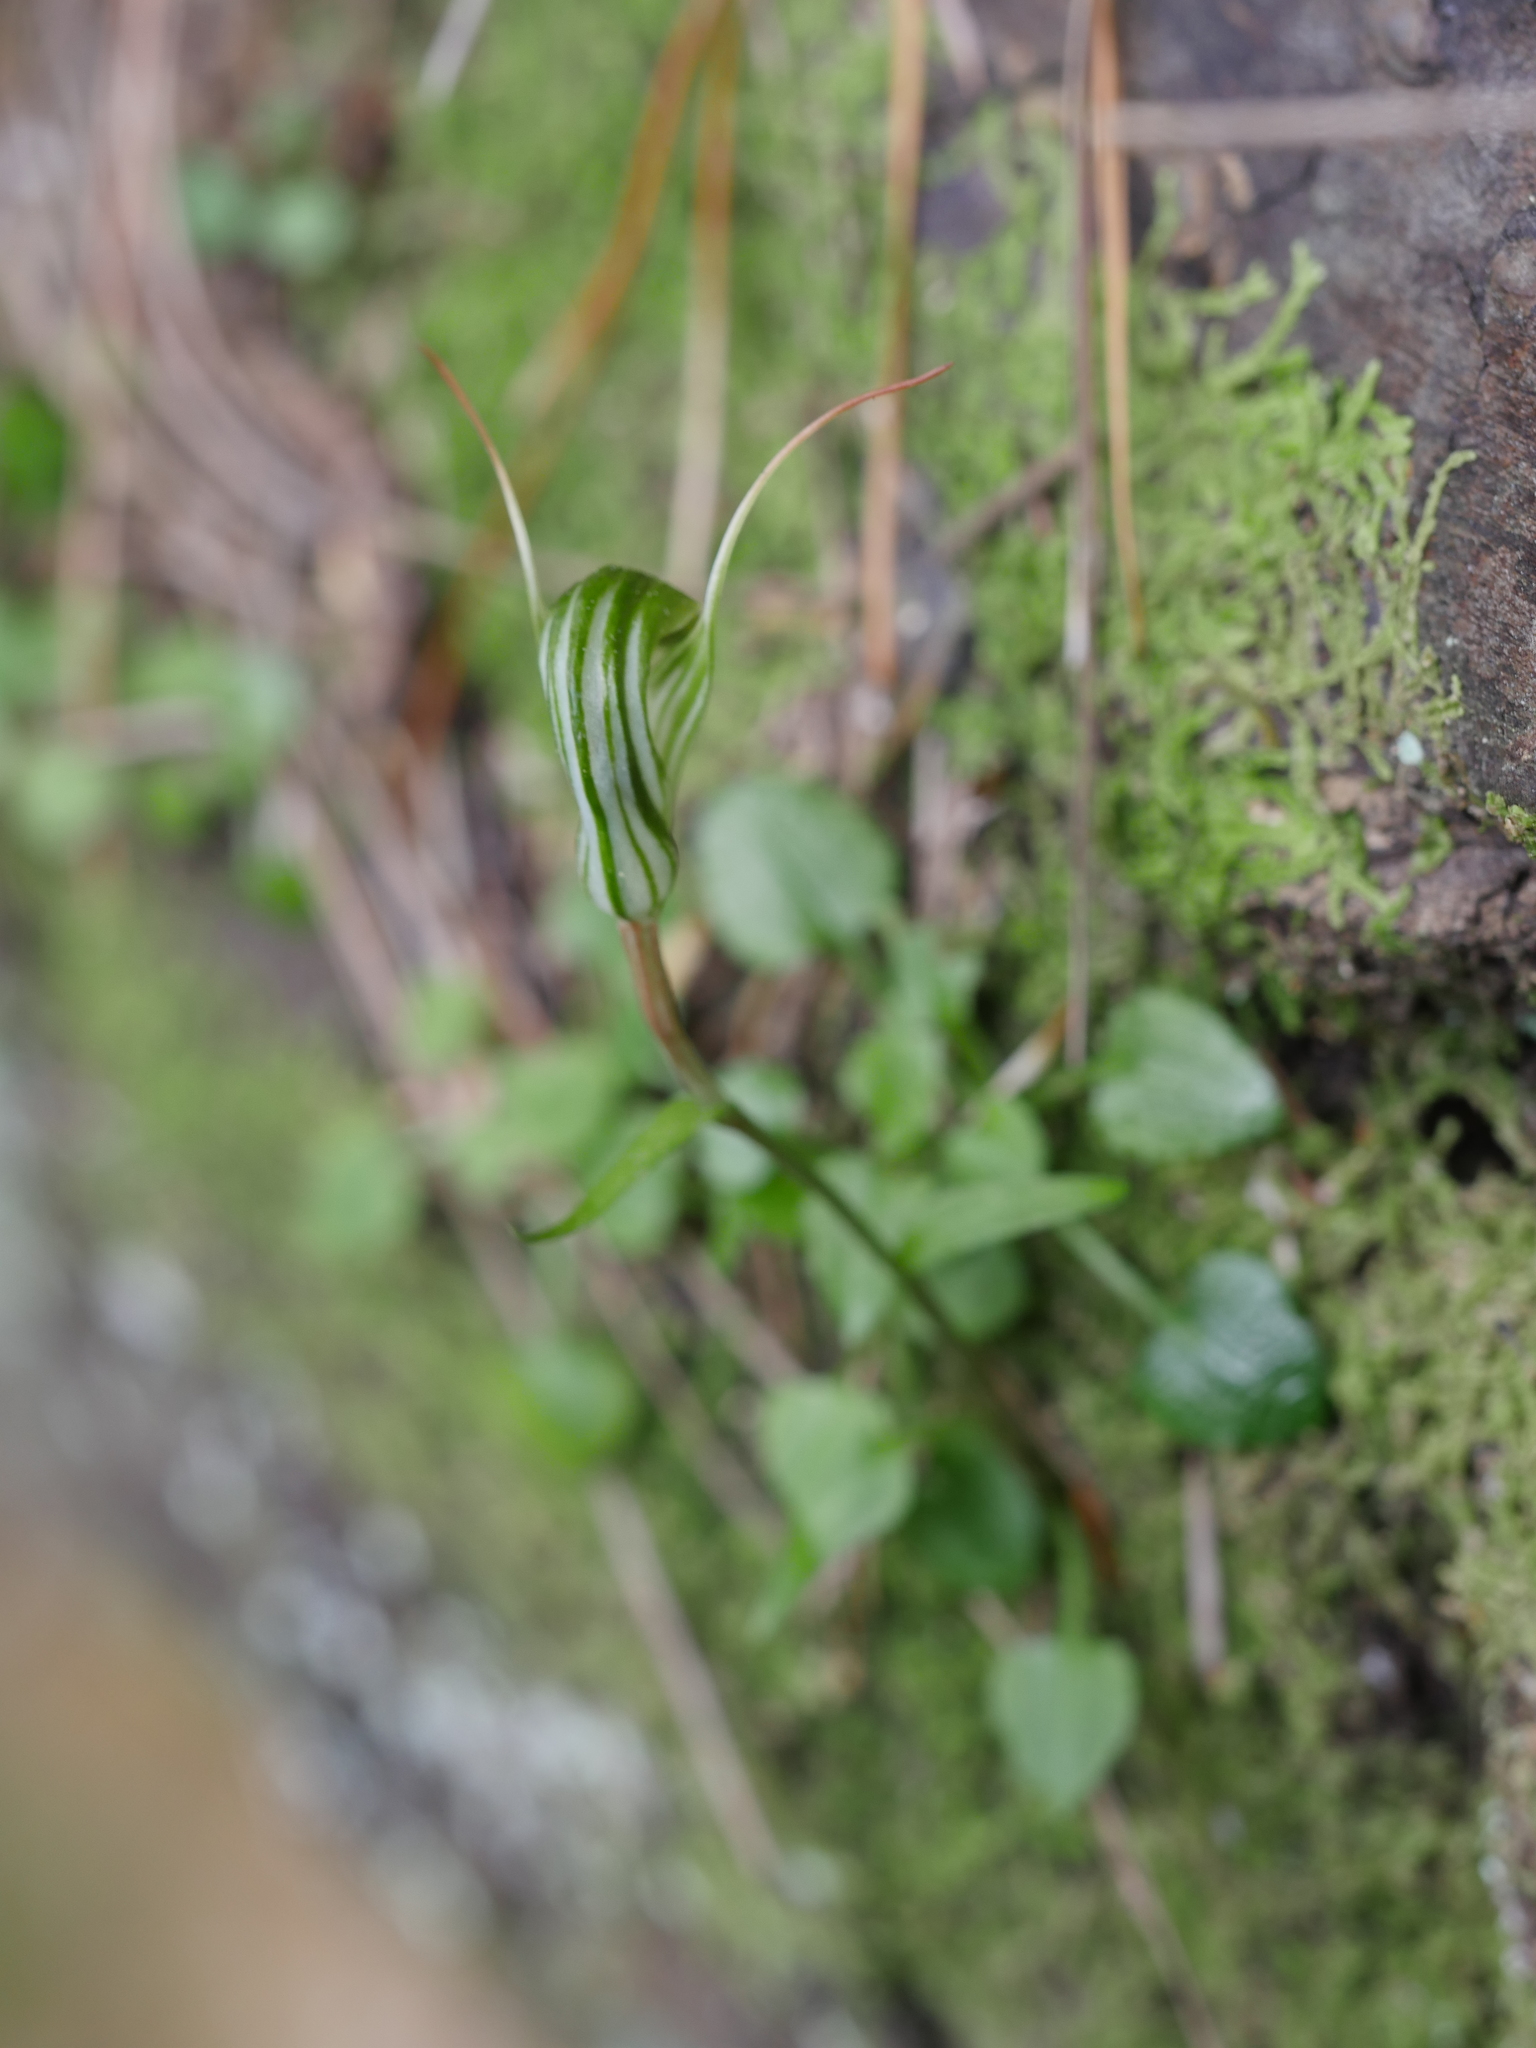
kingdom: Plantae
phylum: Tracheophyta
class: Liliopsida
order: Asparagales
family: Orchidaceae
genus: Pterostylis
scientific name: Pterostylis alobula
